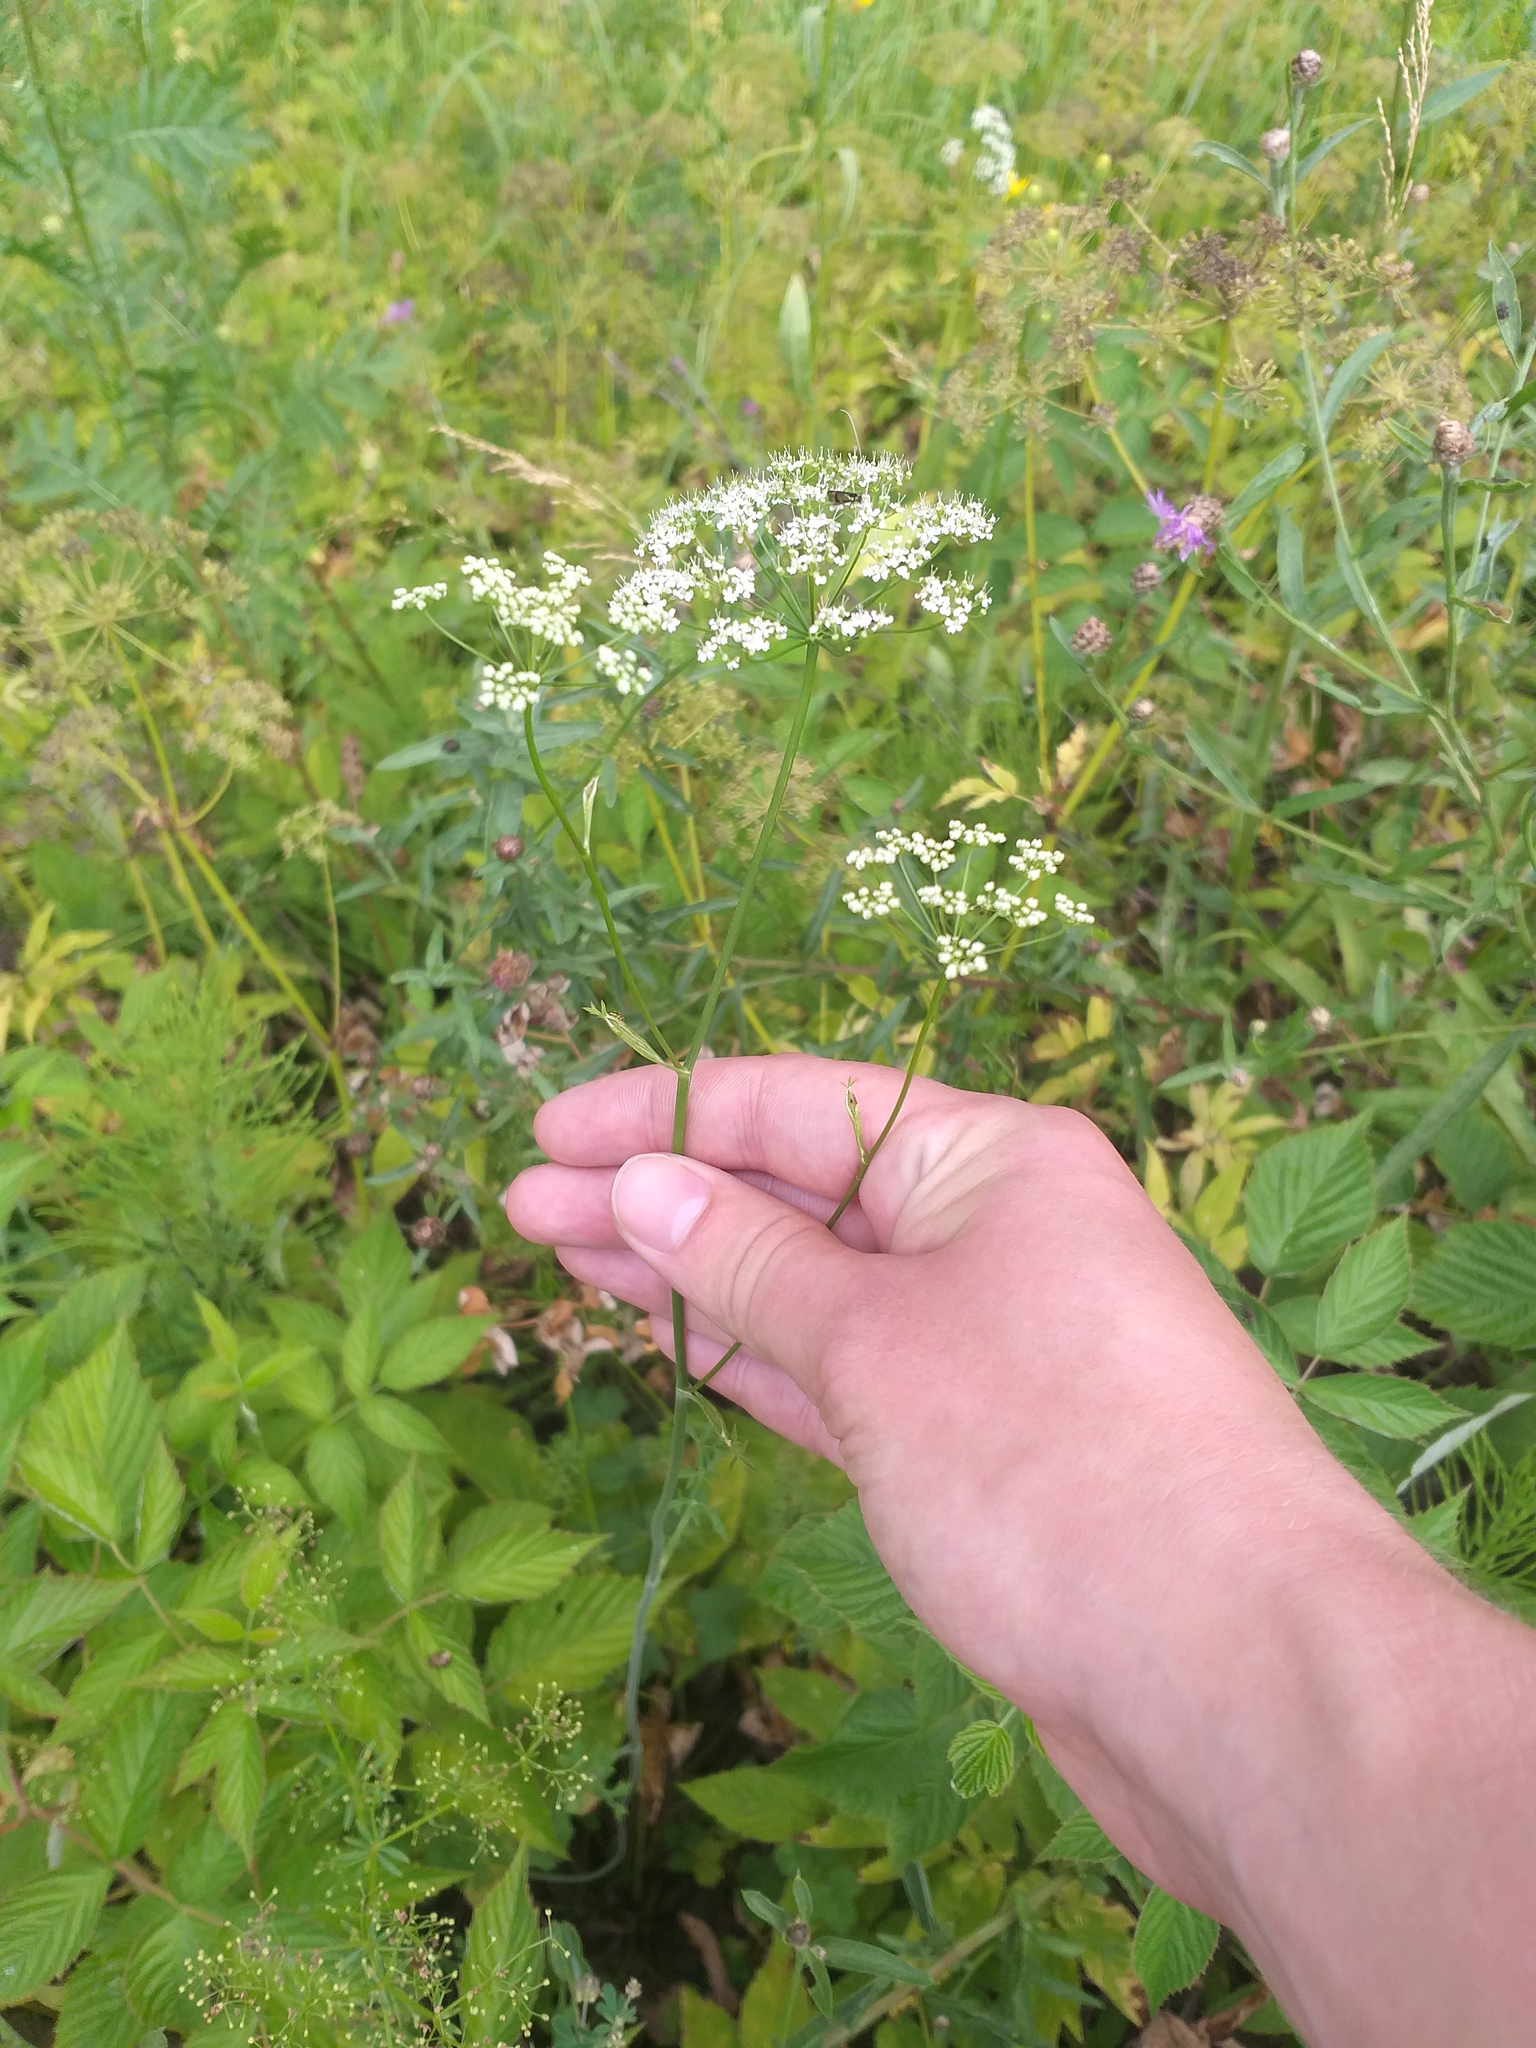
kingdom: Plantae
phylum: Tracheophyta
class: Magnoliopsida
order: Apiales
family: Apiaceae
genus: Pimpinella
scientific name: Pimpinella saxifraga
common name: Burnet-saxifrage
